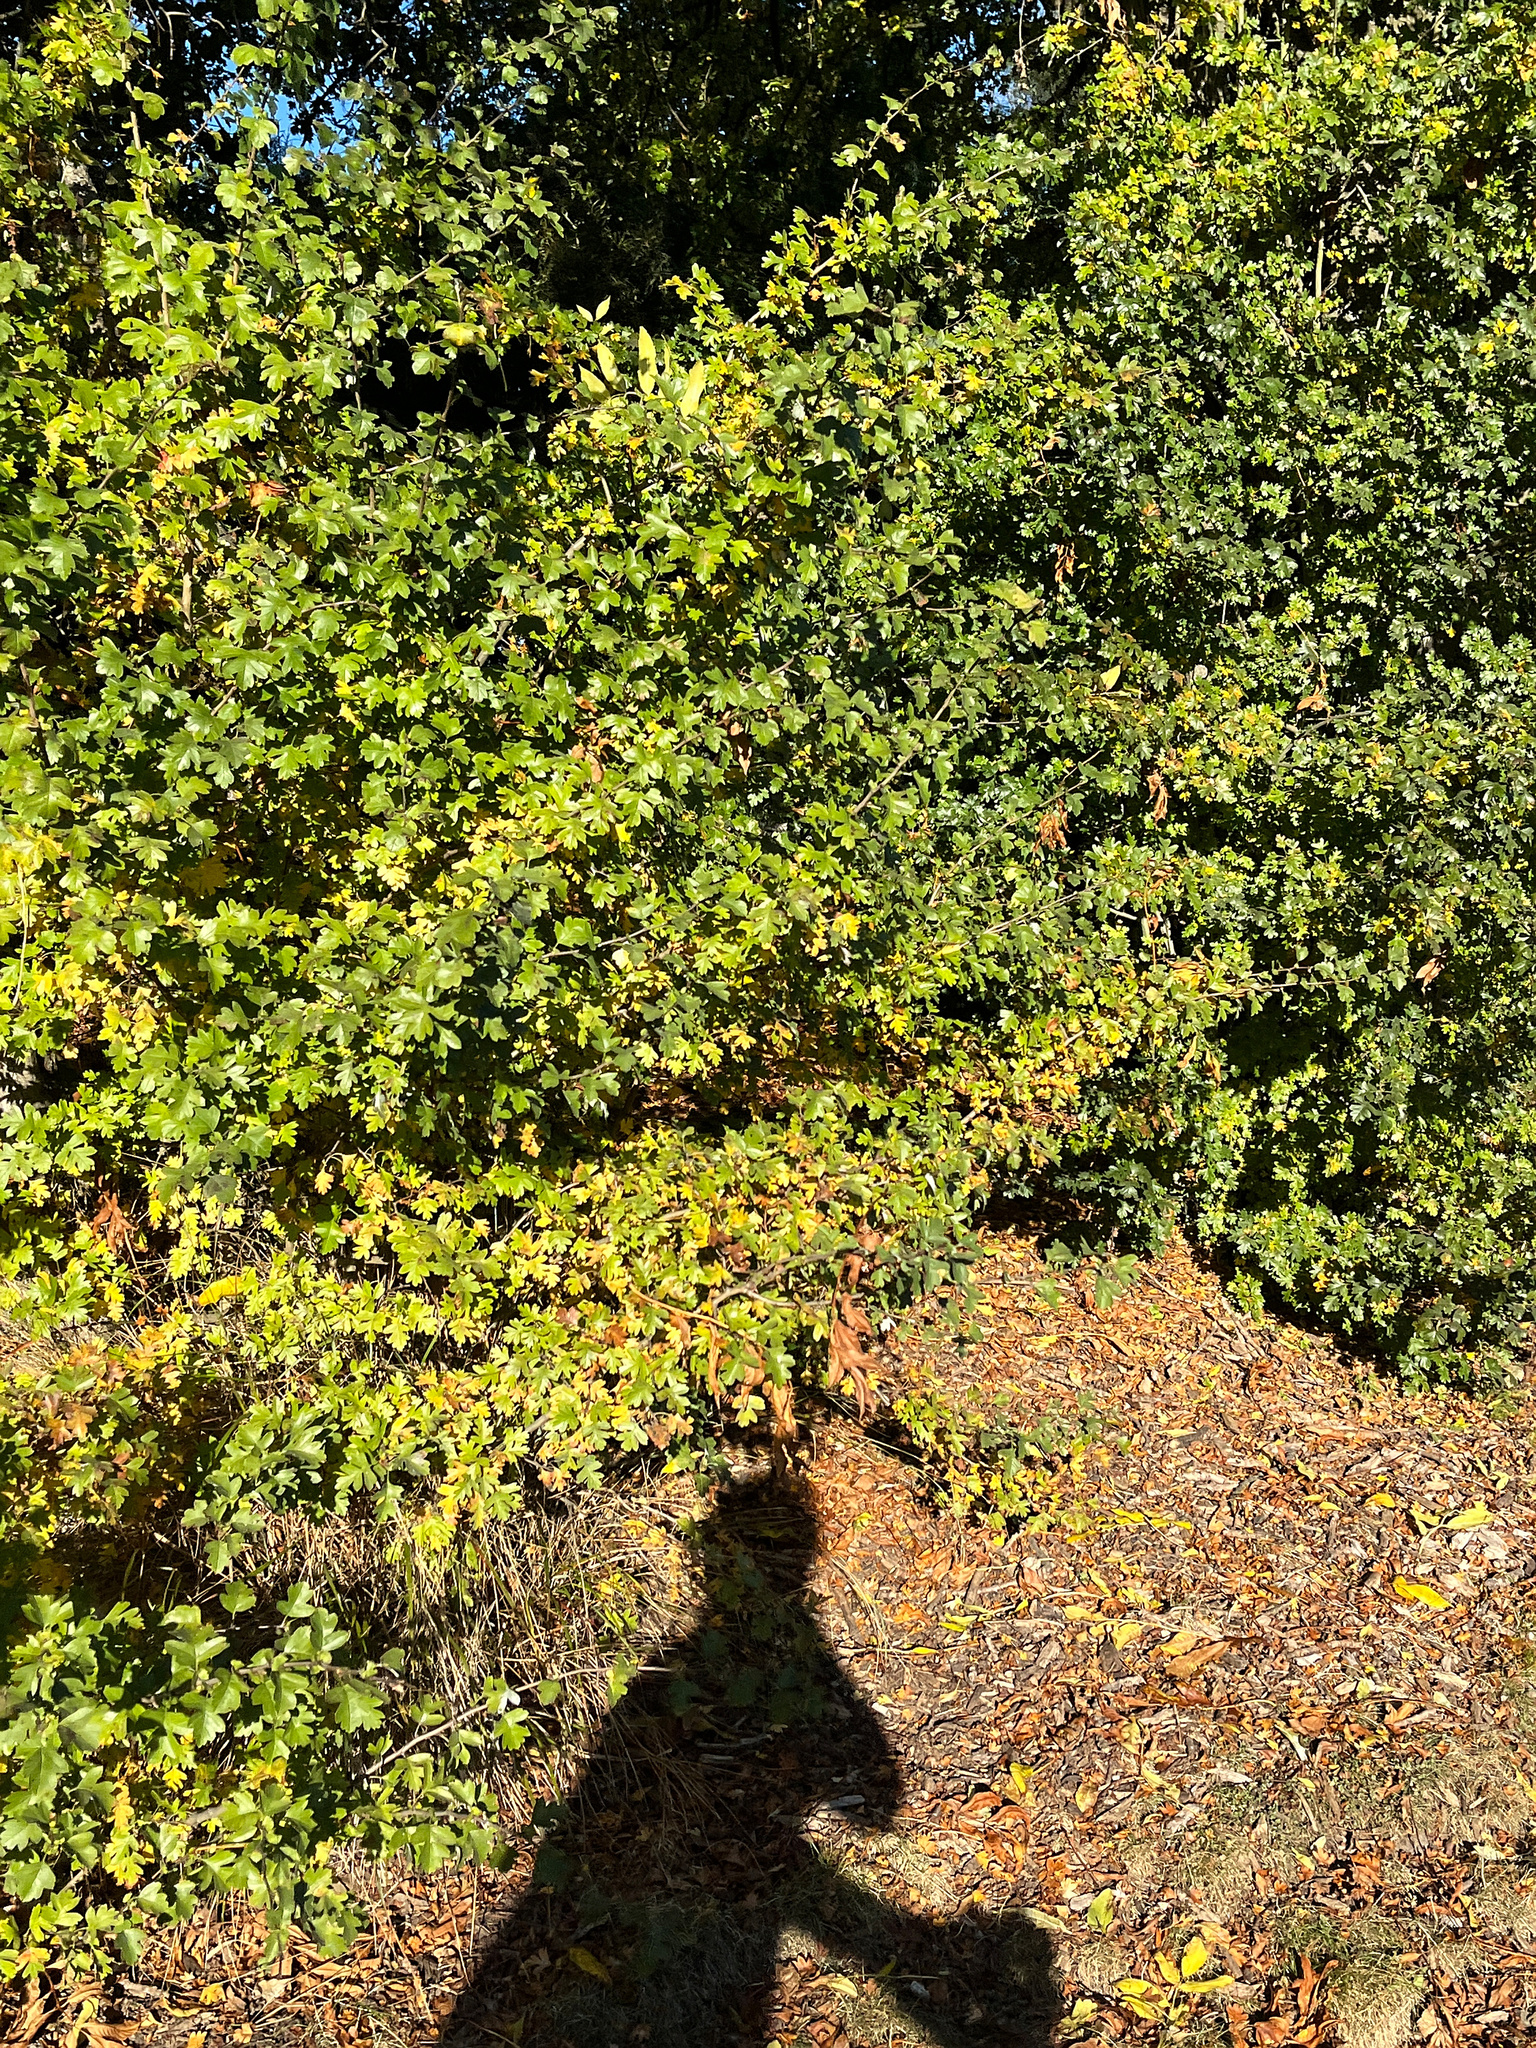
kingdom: Plantae
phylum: Tracheophyta
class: Magnoliopsida
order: Rosales
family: Rosaceae
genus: Crataegus
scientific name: Crataegus monogyna
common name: Hawthorn
